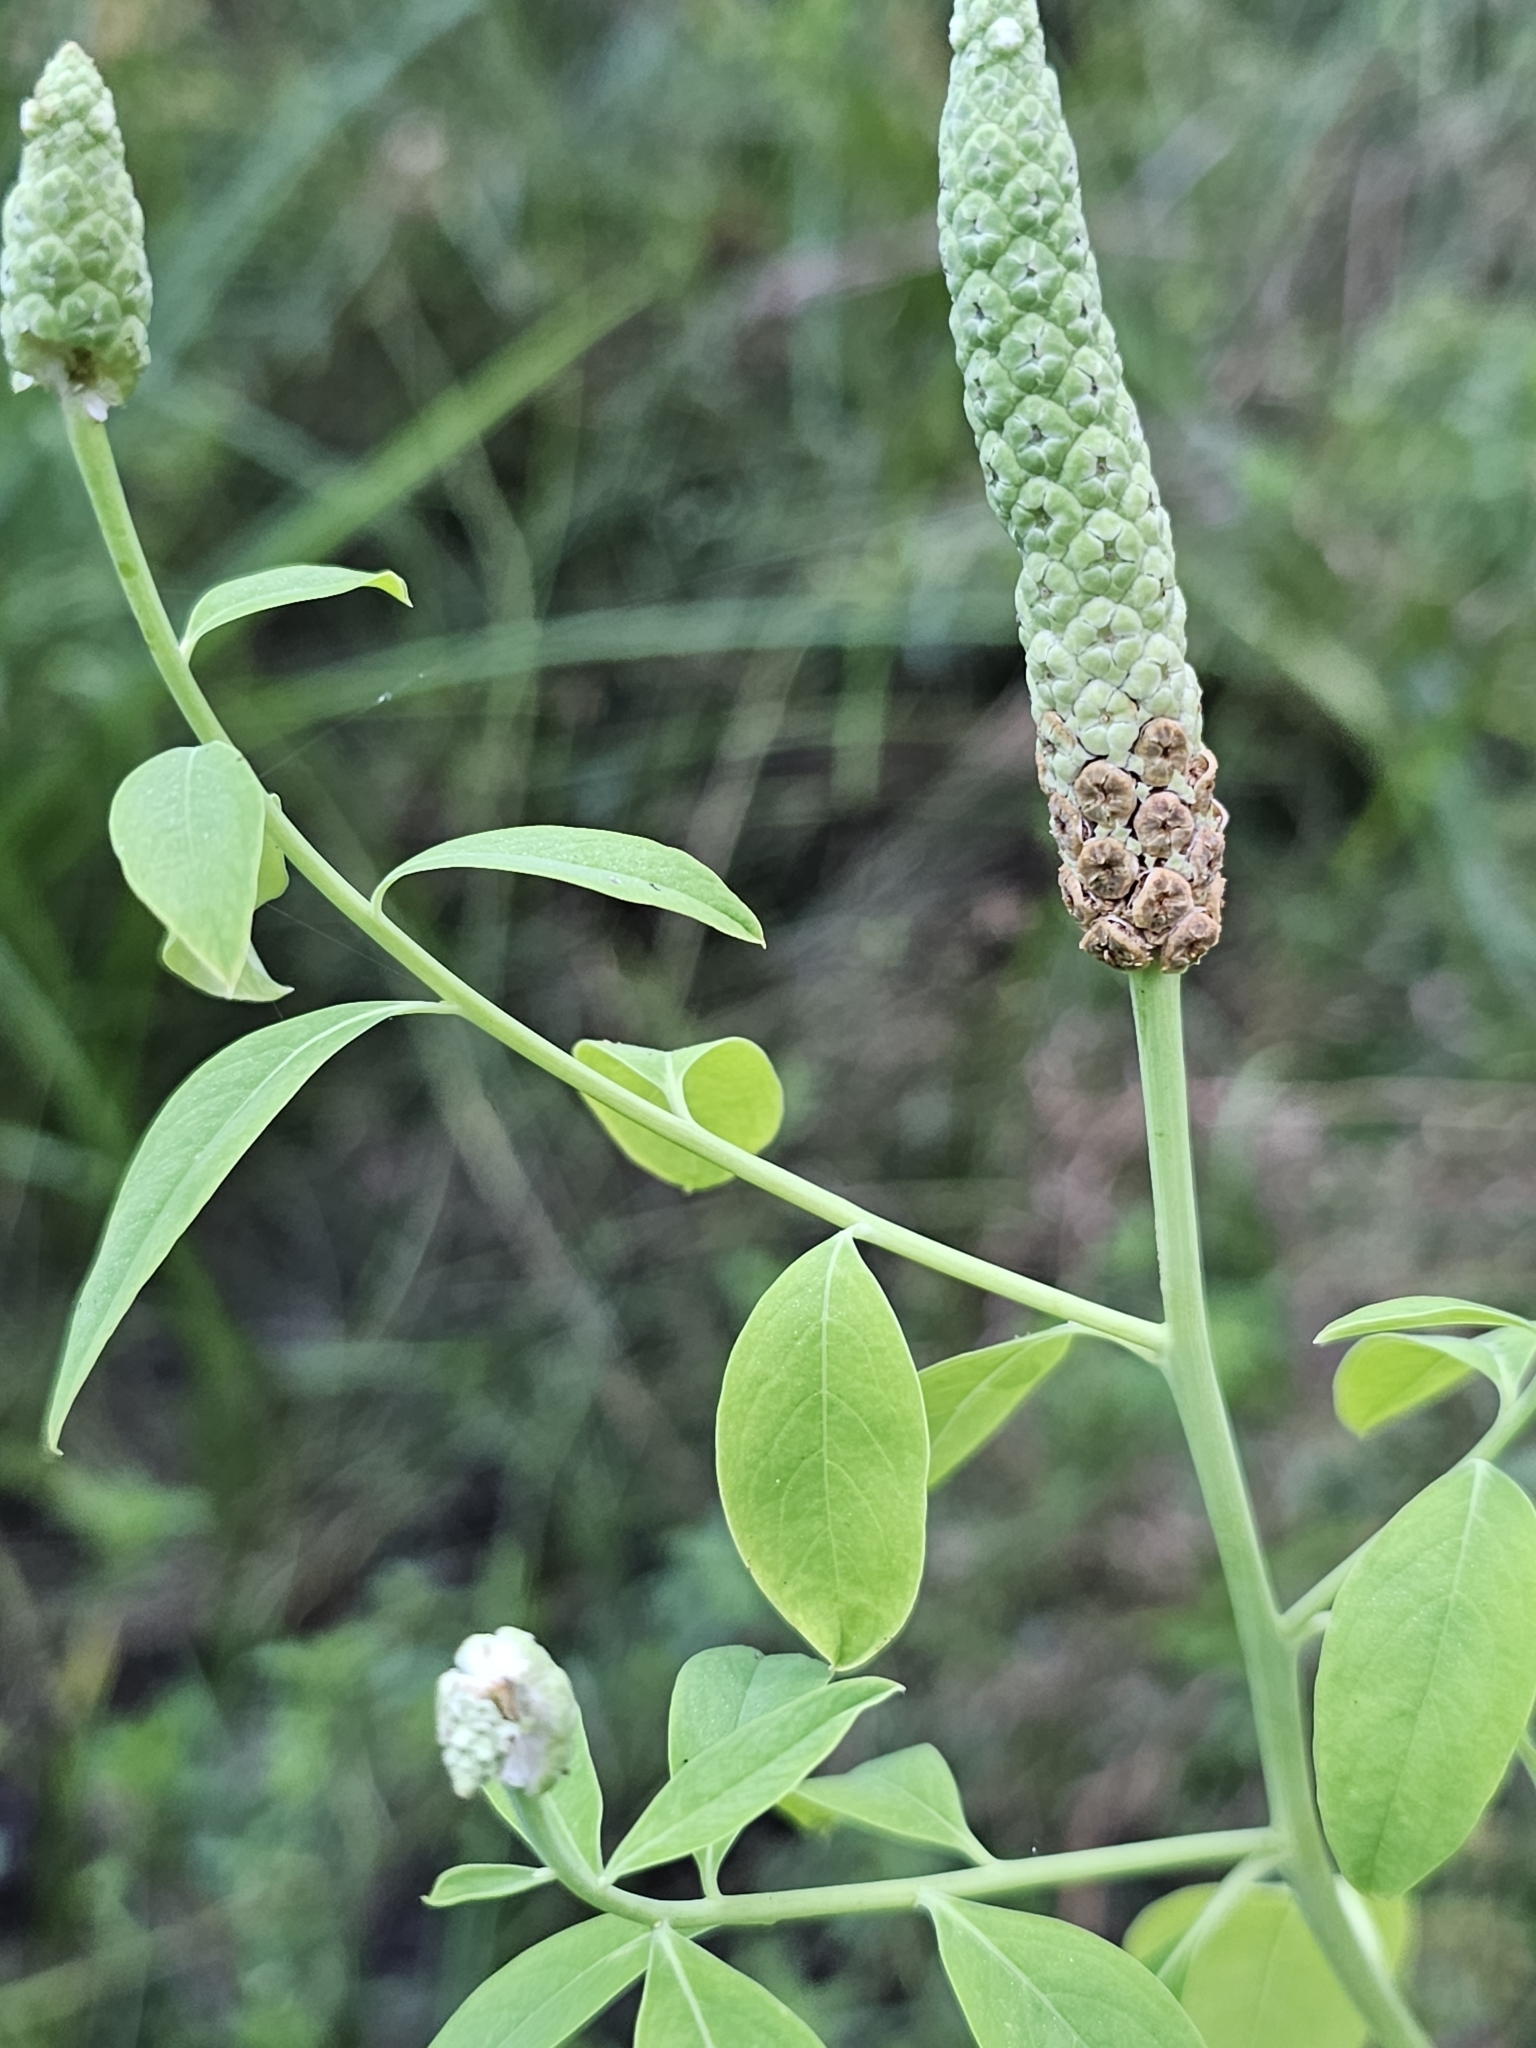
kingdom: Plantae
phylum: Tracheophyta
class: Magnoliopsida
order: Solanales
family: Sphenocleaceae
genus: Sphenoclea
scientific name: Sphenoclea zeylanica
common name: Chickenspike
